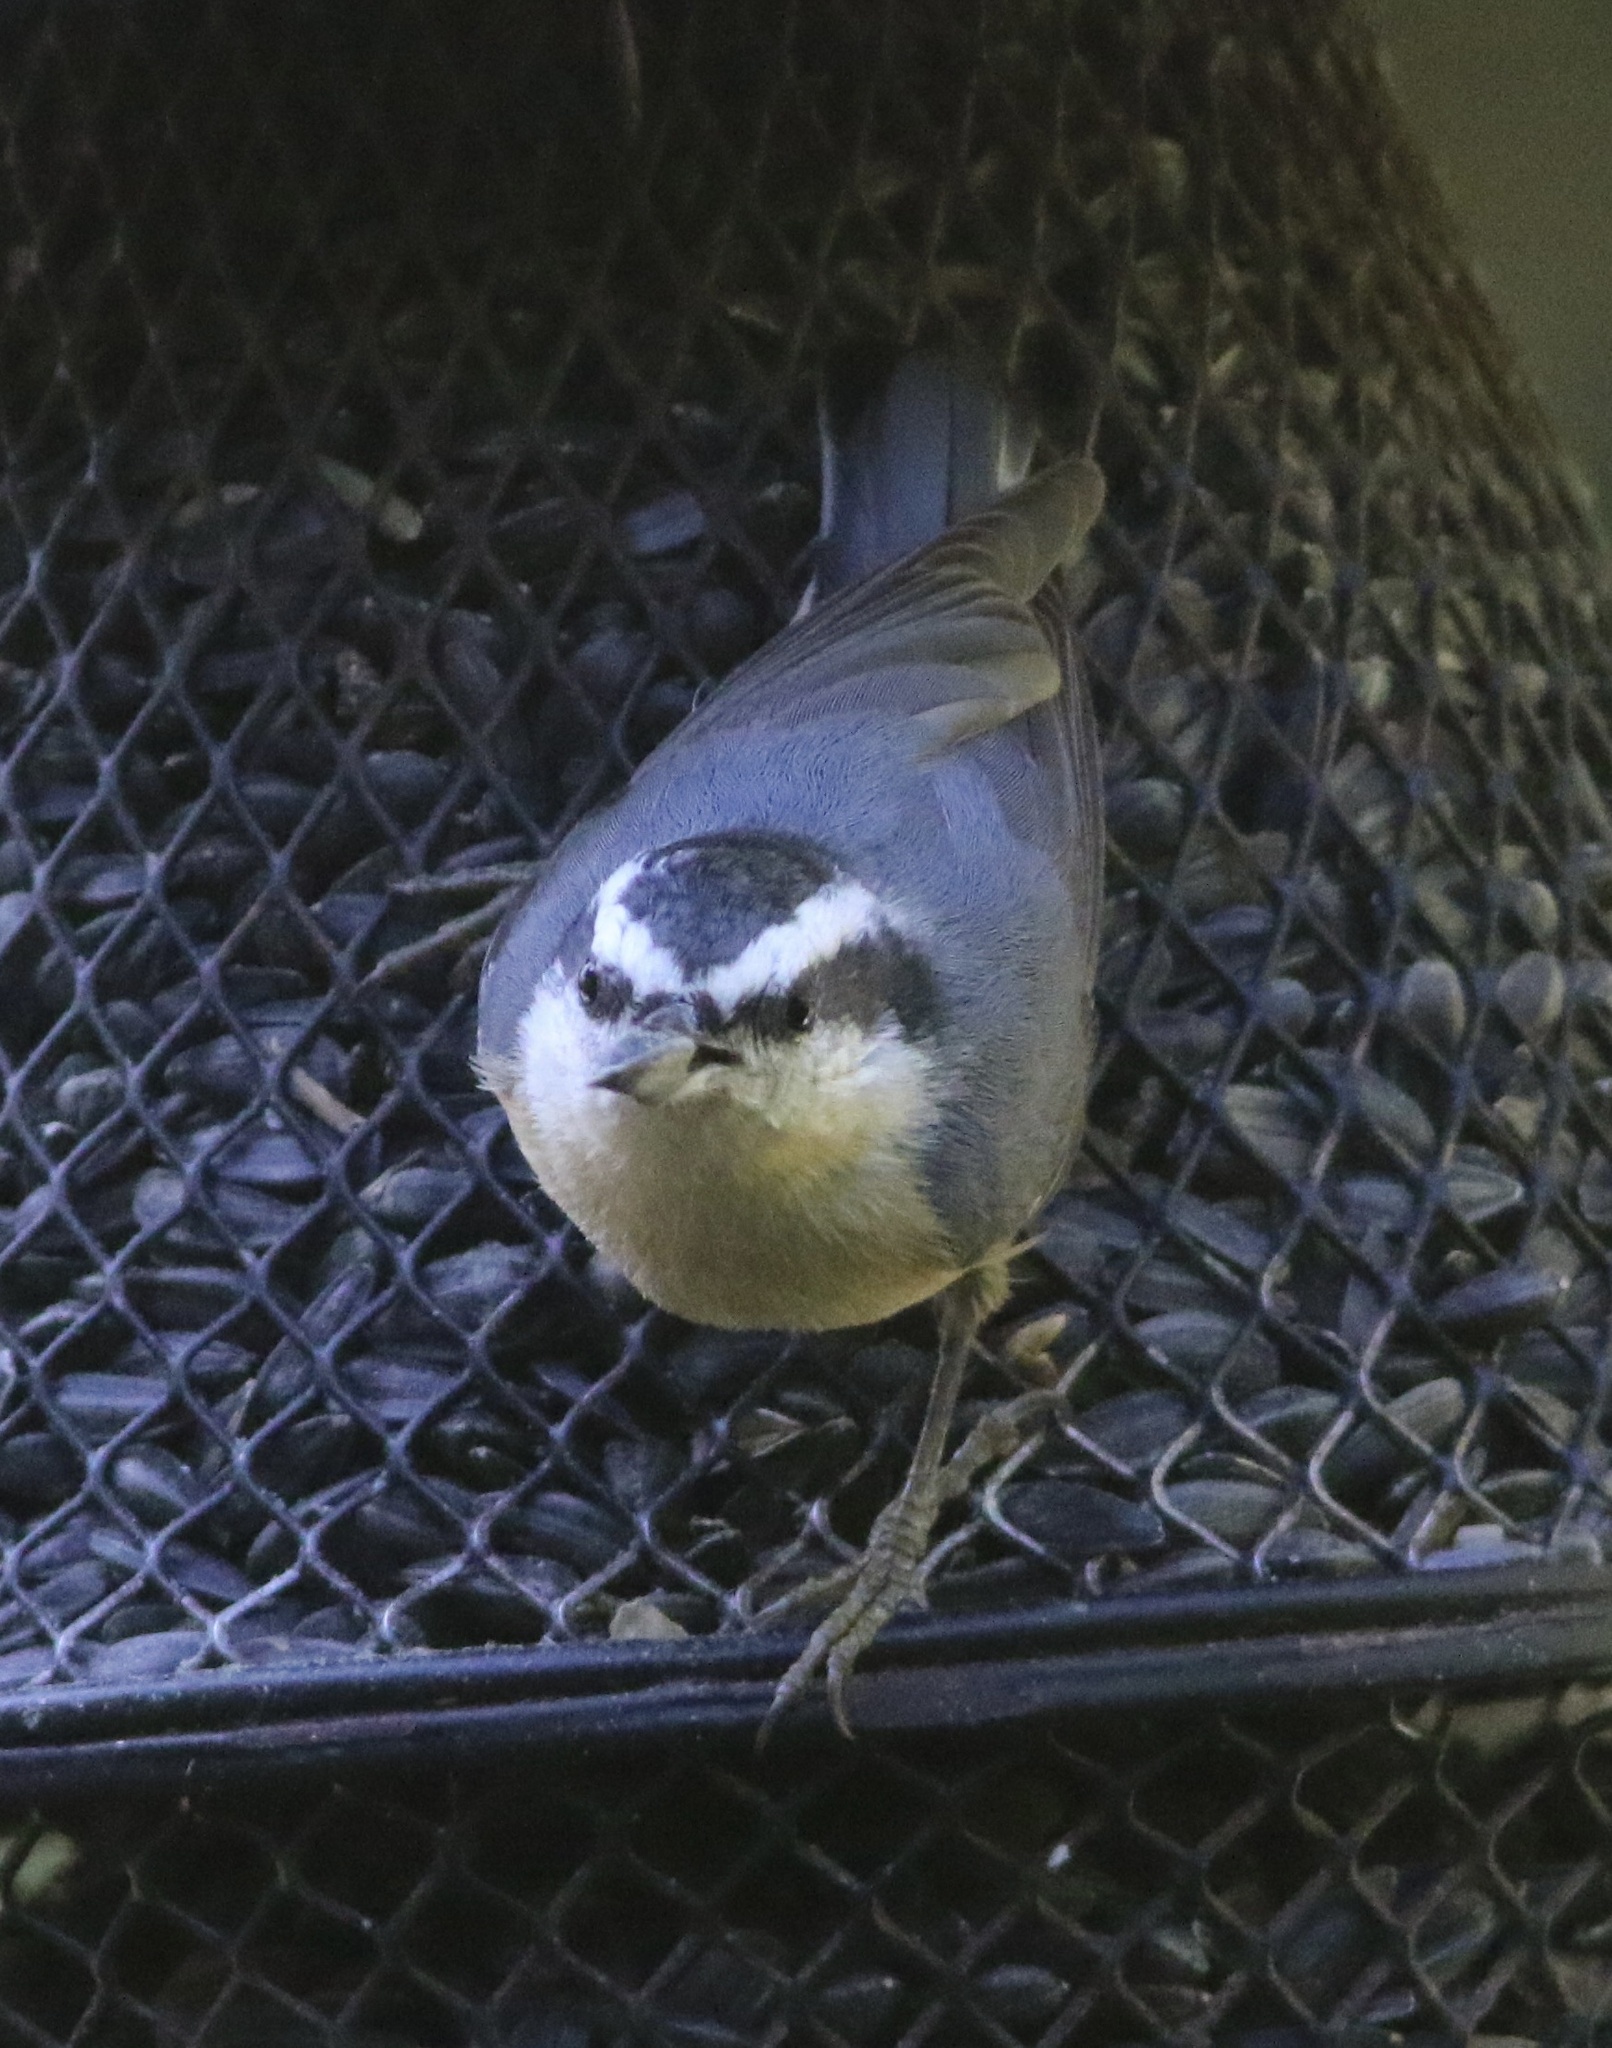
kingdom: Animalia
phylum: Chordata
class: Aves
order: Passeriformes
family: Sittidae
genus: Sitta
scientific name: Sitta canadensis
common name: Red-breasted nuthatch
